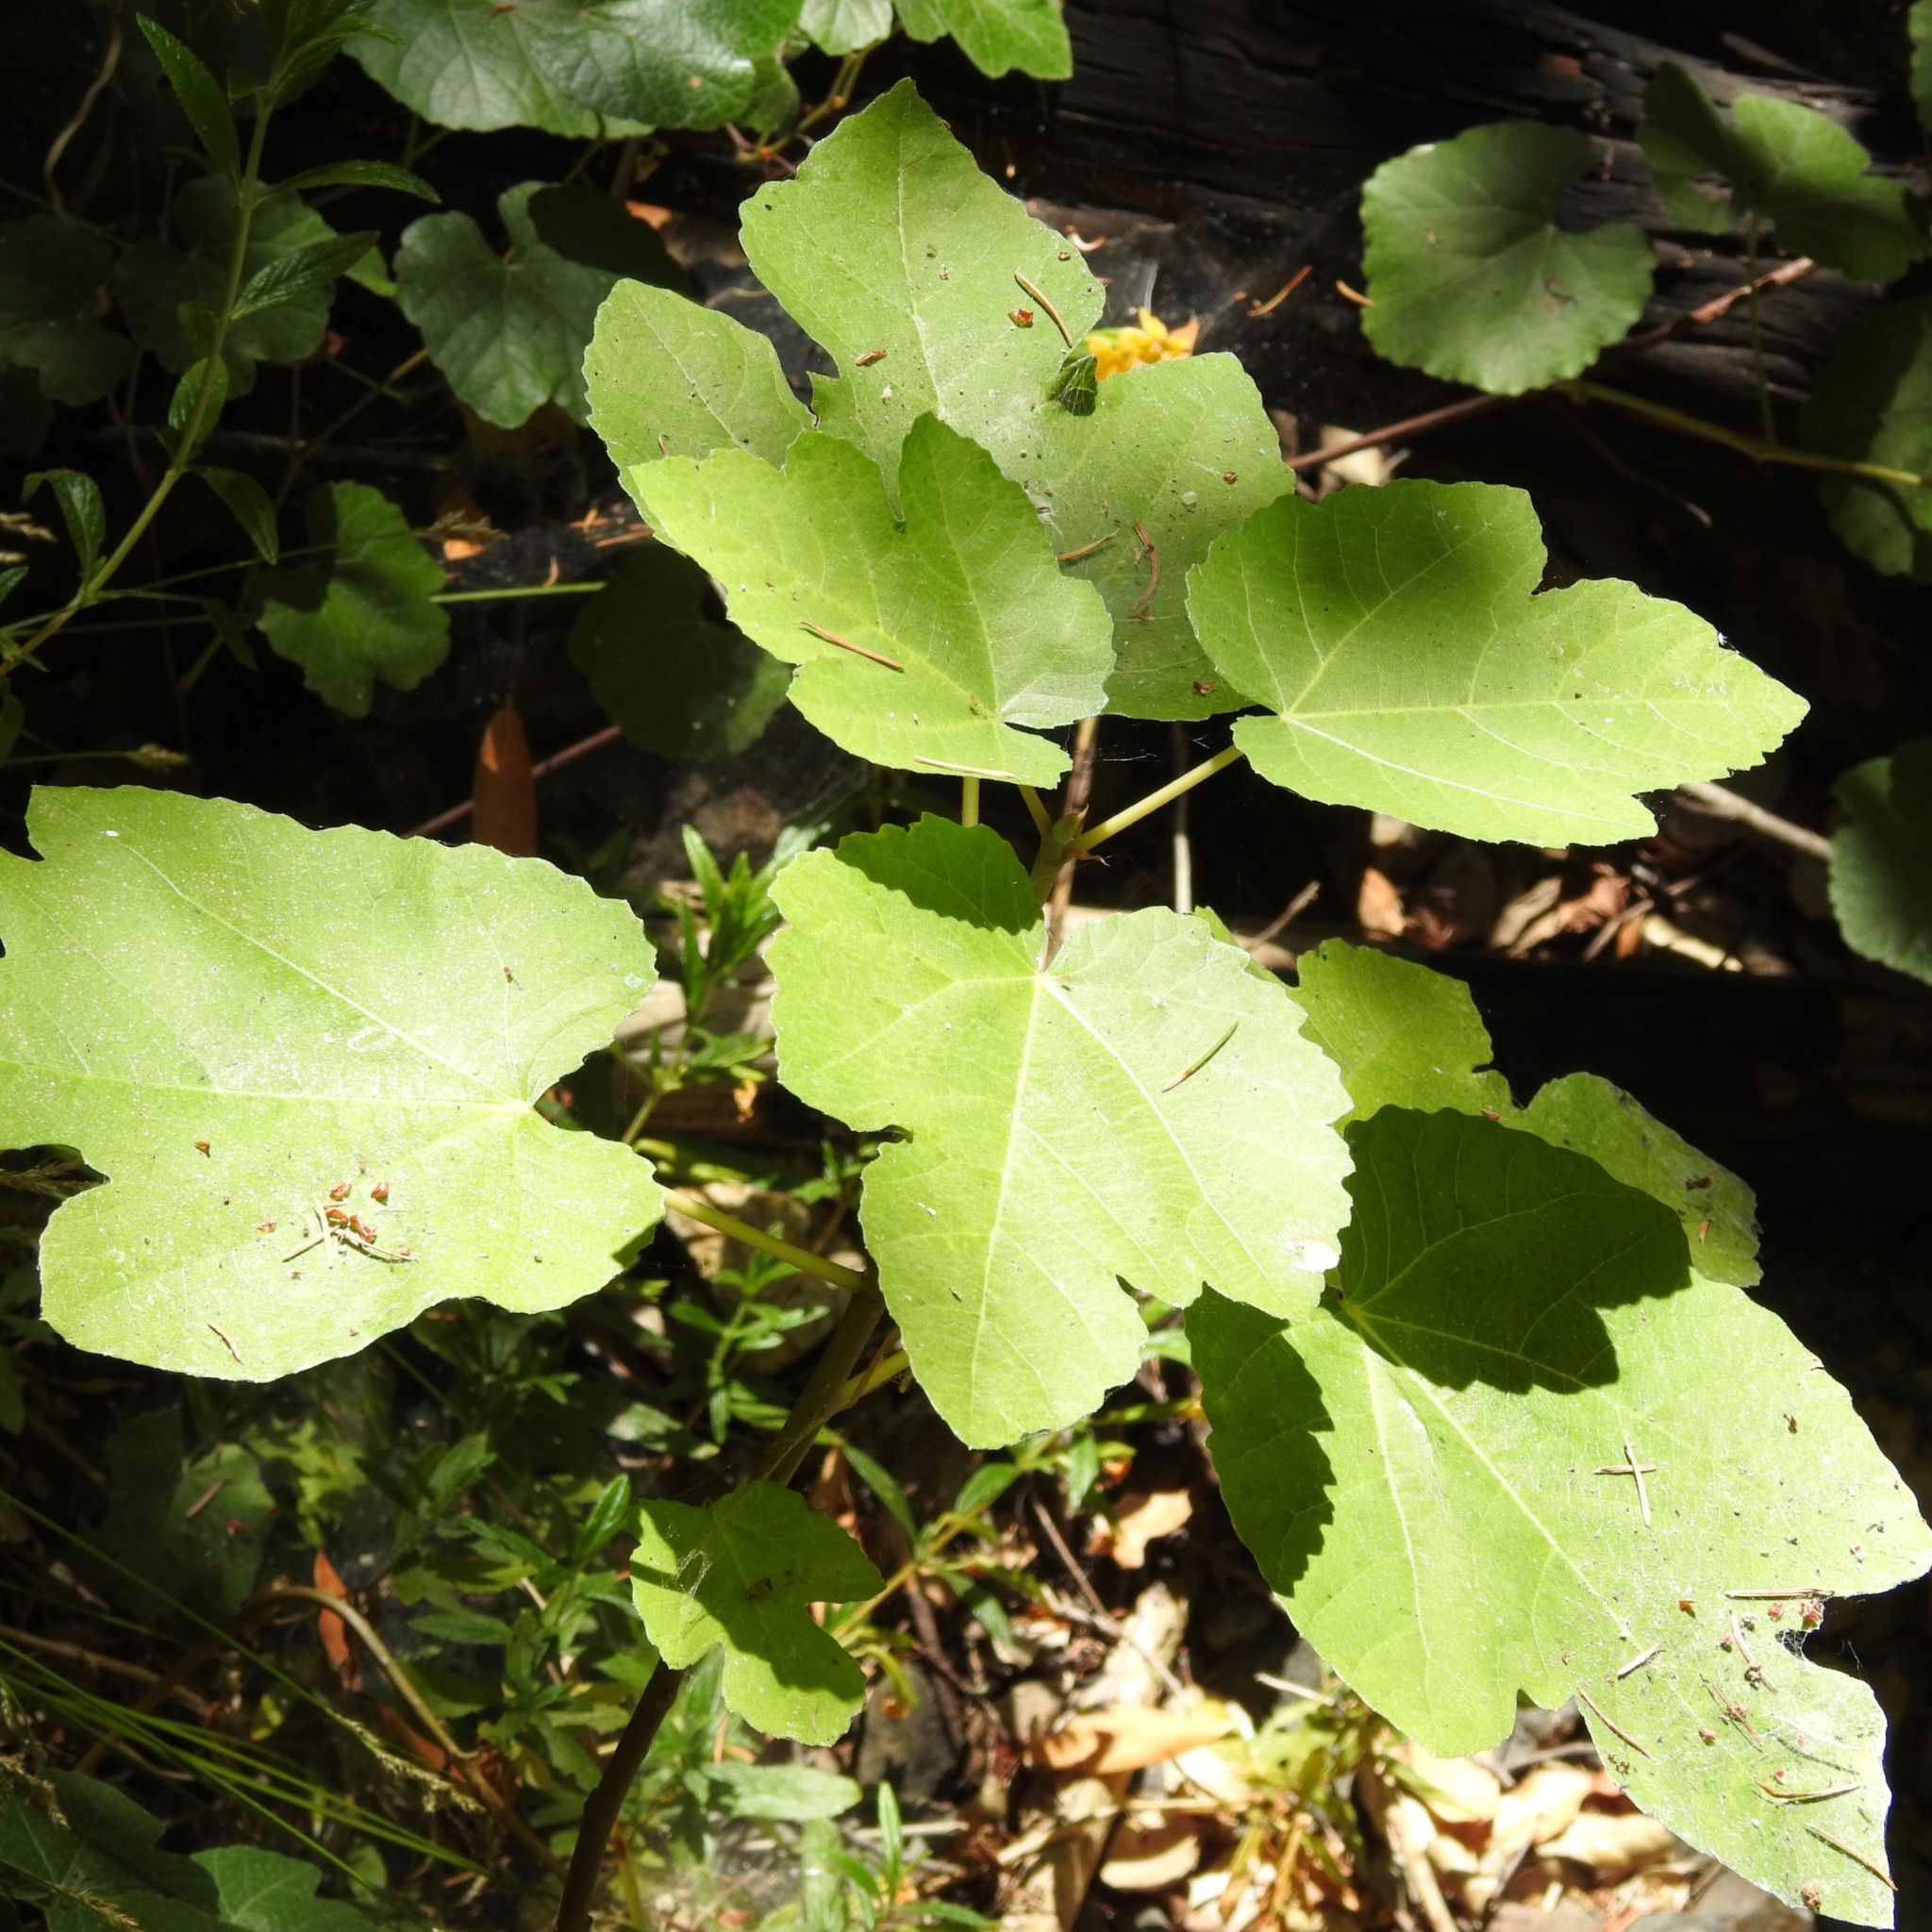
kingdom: Plantae
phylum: Tracheophyta
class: Magnoliopsida
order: Rosales
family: Moraceae
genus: Ficus
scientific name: Ficus carica
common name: Fig
